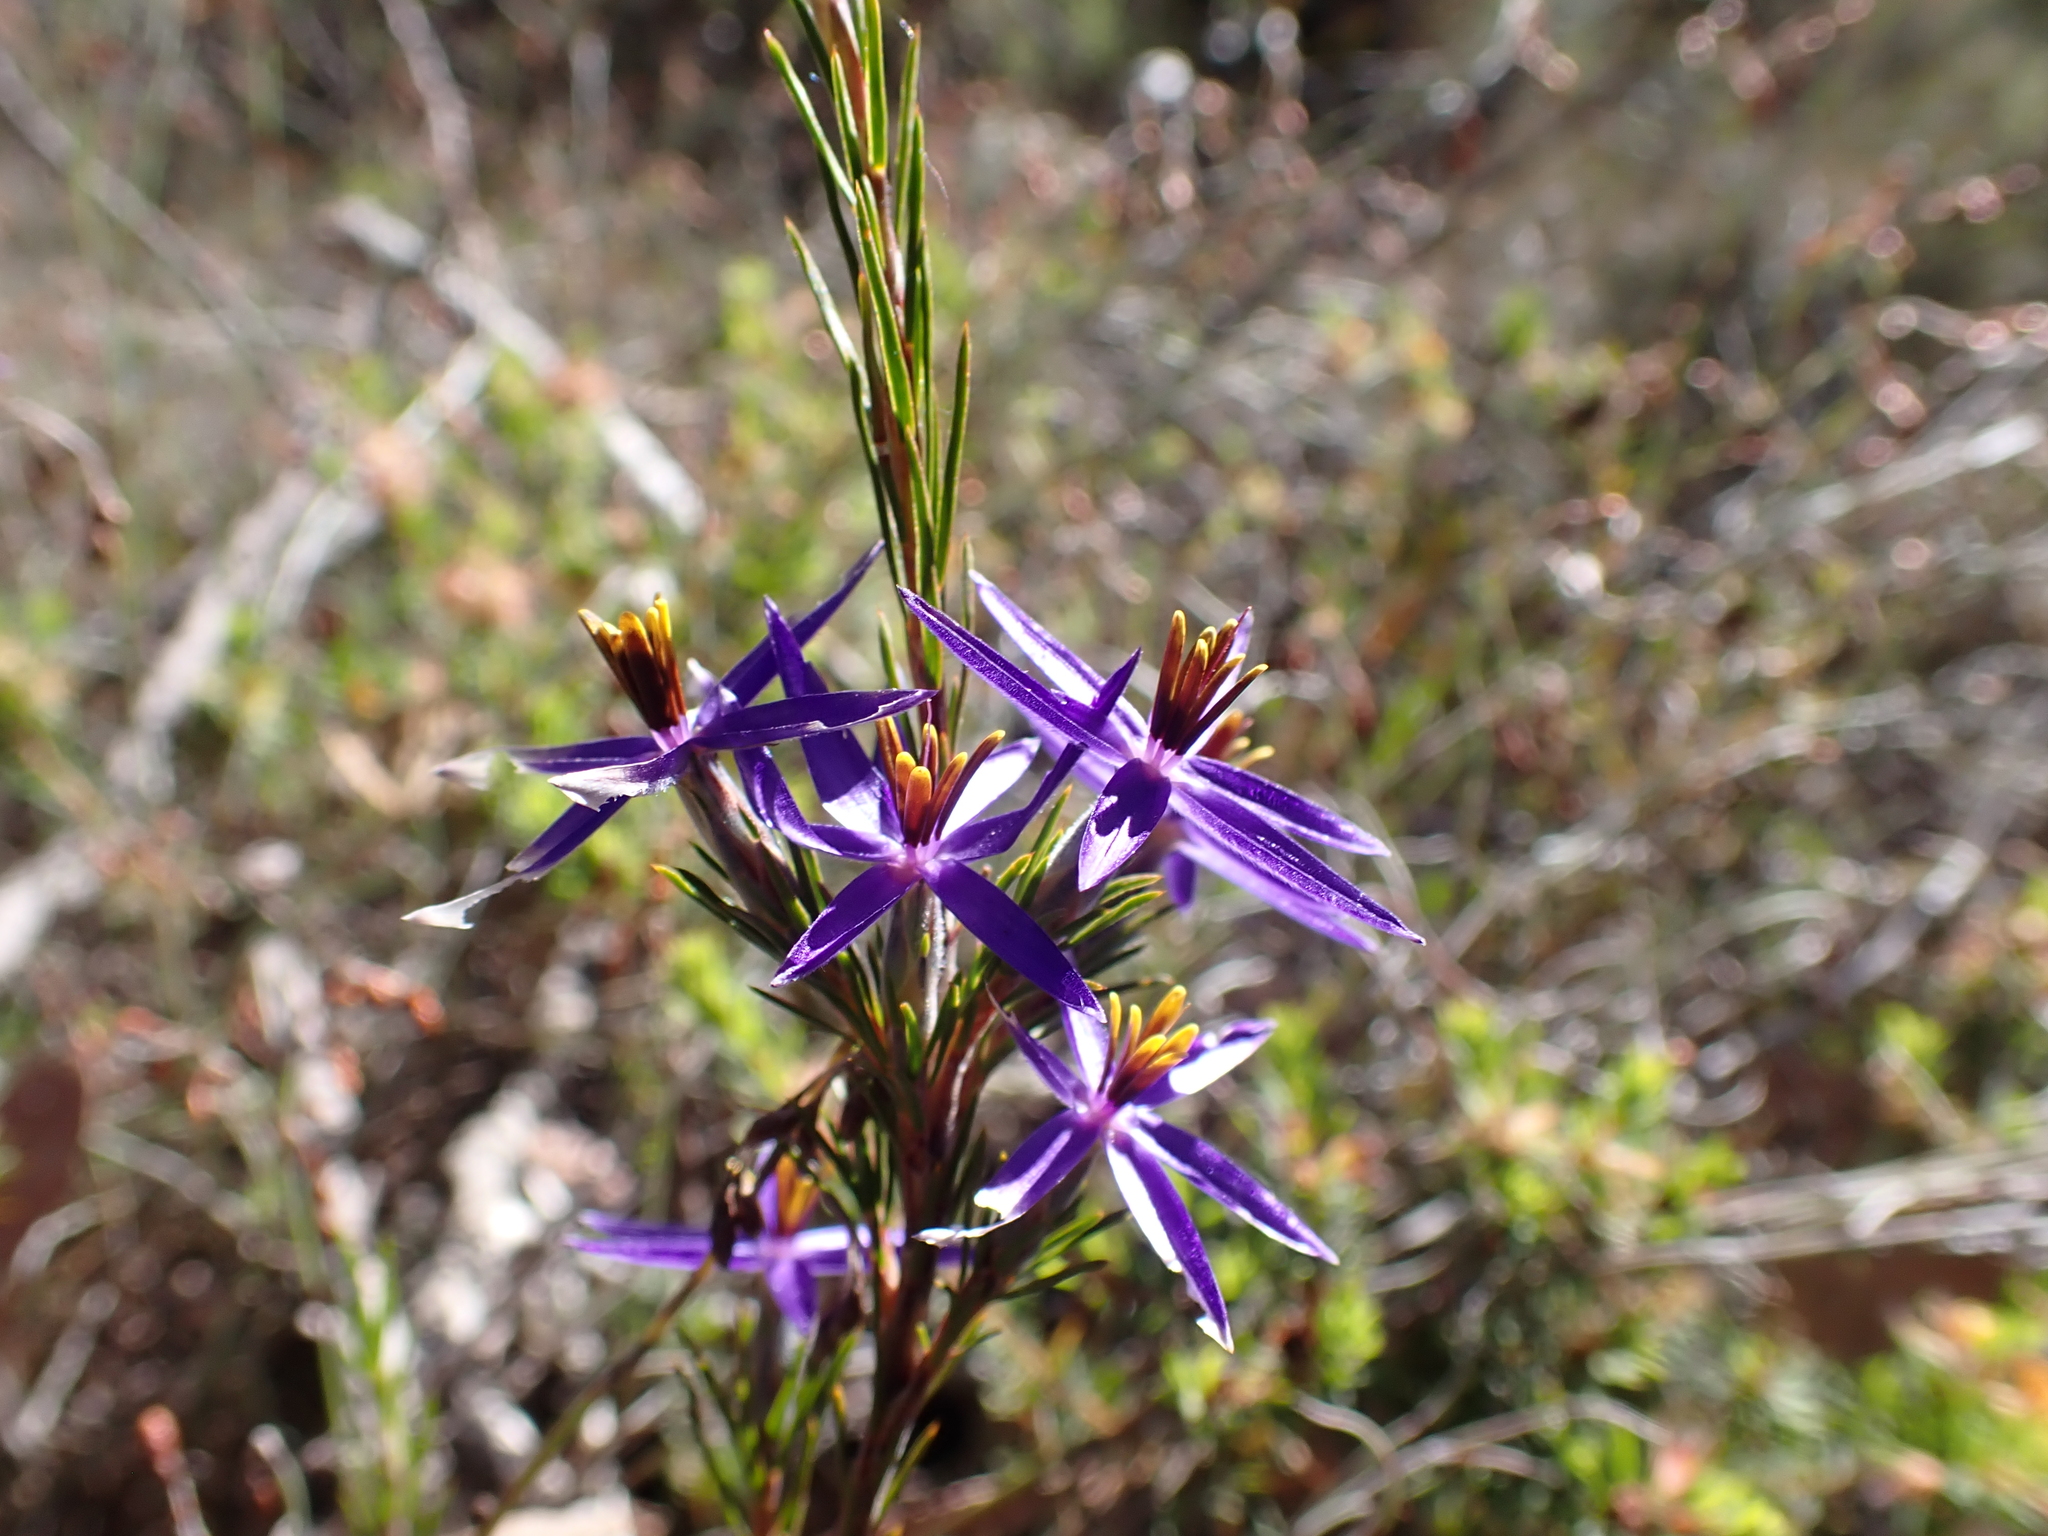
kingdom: Plantae
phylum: Tracheophyta
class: Liliopsida
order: Arecales
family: Dasypogonaceae
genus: Calectasia
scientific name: Calectasia intermedia
